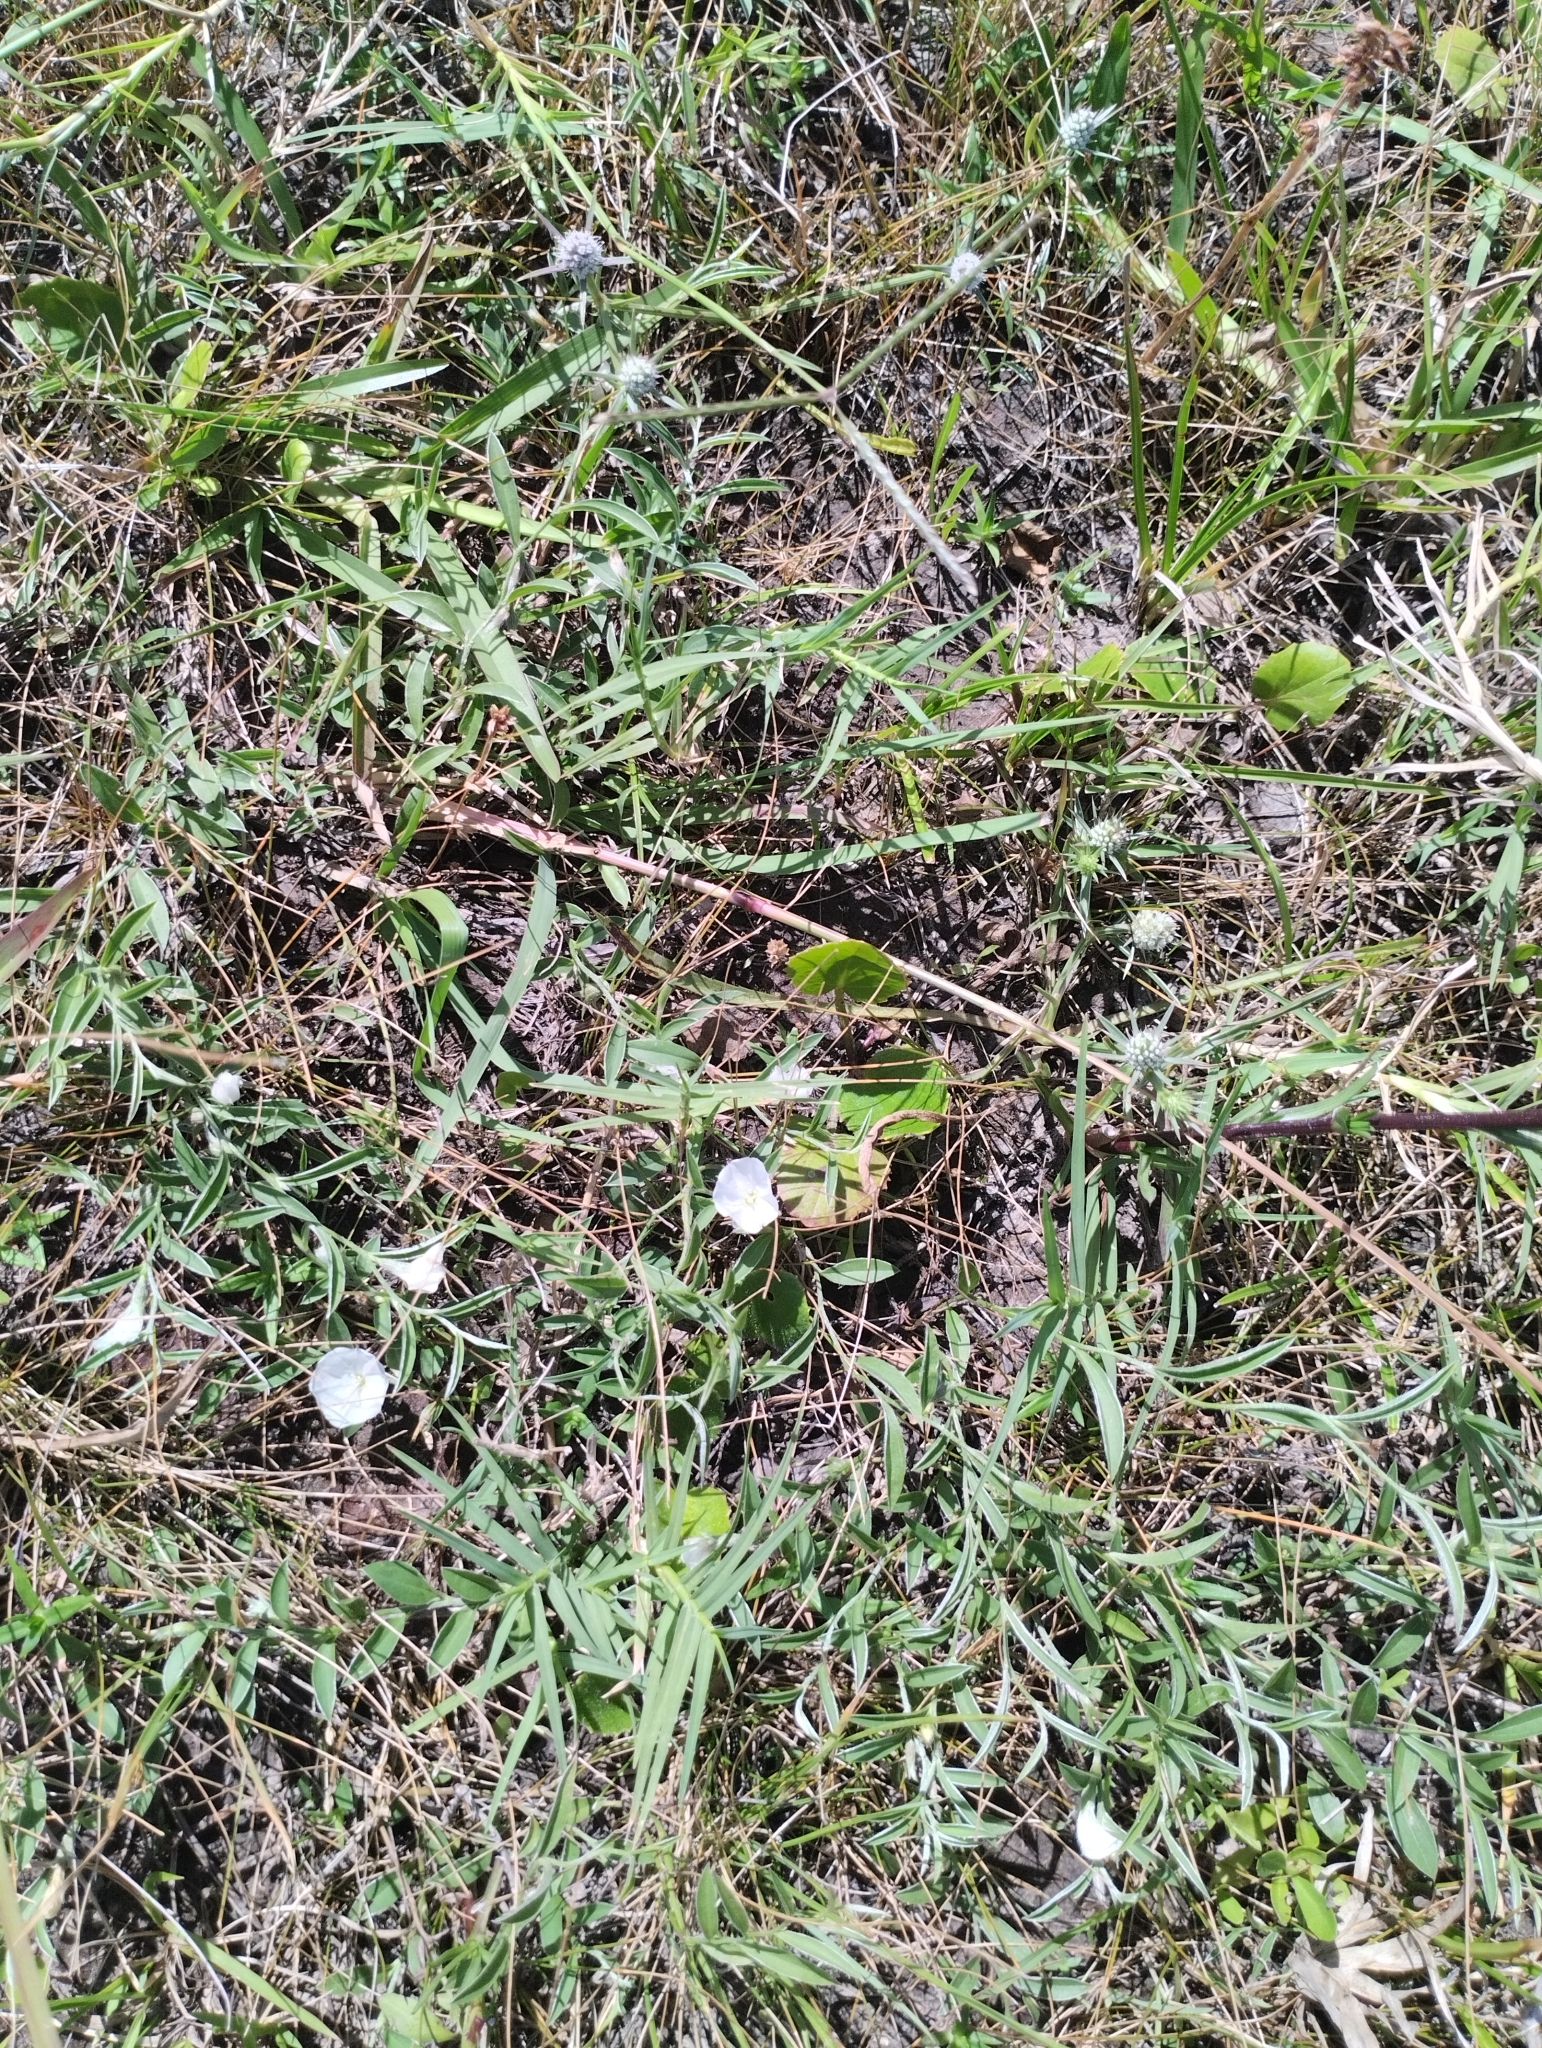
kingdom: Plantae
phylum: Tracheophyta
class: Magnoliopsida
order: Solanales
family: Convolvulaceae
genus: Evolvulus
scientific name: Evolvulus sericeus
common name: Blue dots
